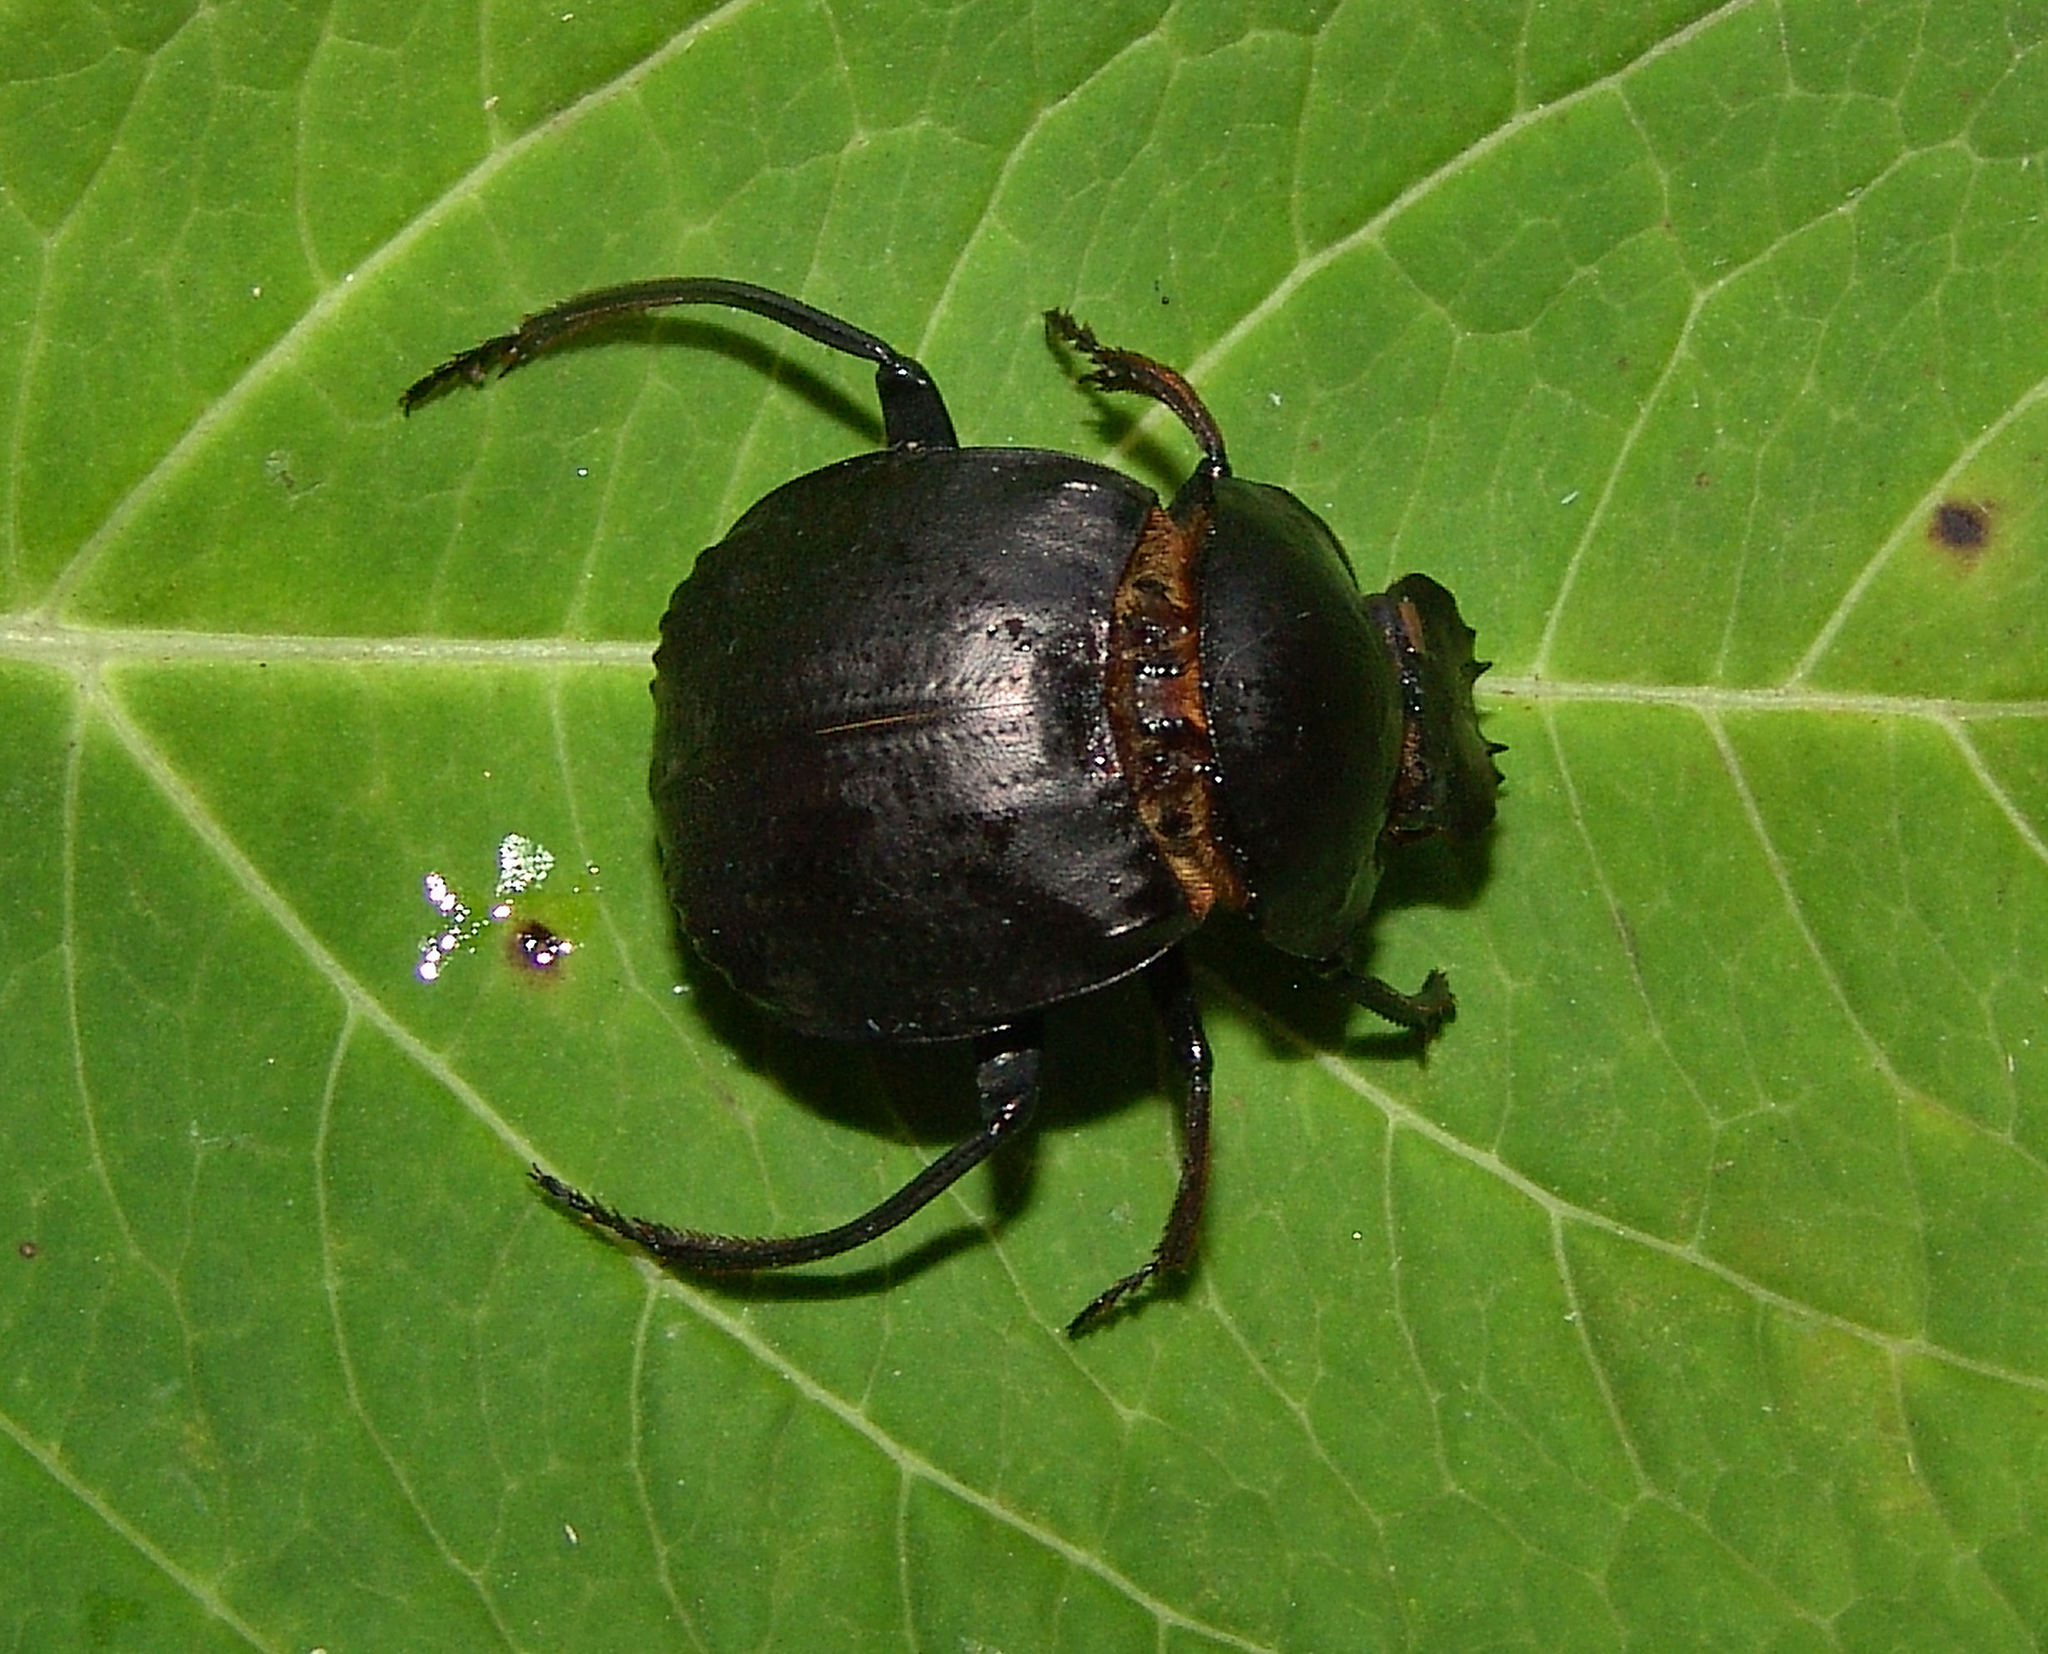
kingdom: Animalia
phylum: Arthropoda
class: Insecta
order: Coleoptera
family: Scarabaeidae
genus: Deltochilum
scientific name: Deltochilum gibbosum
